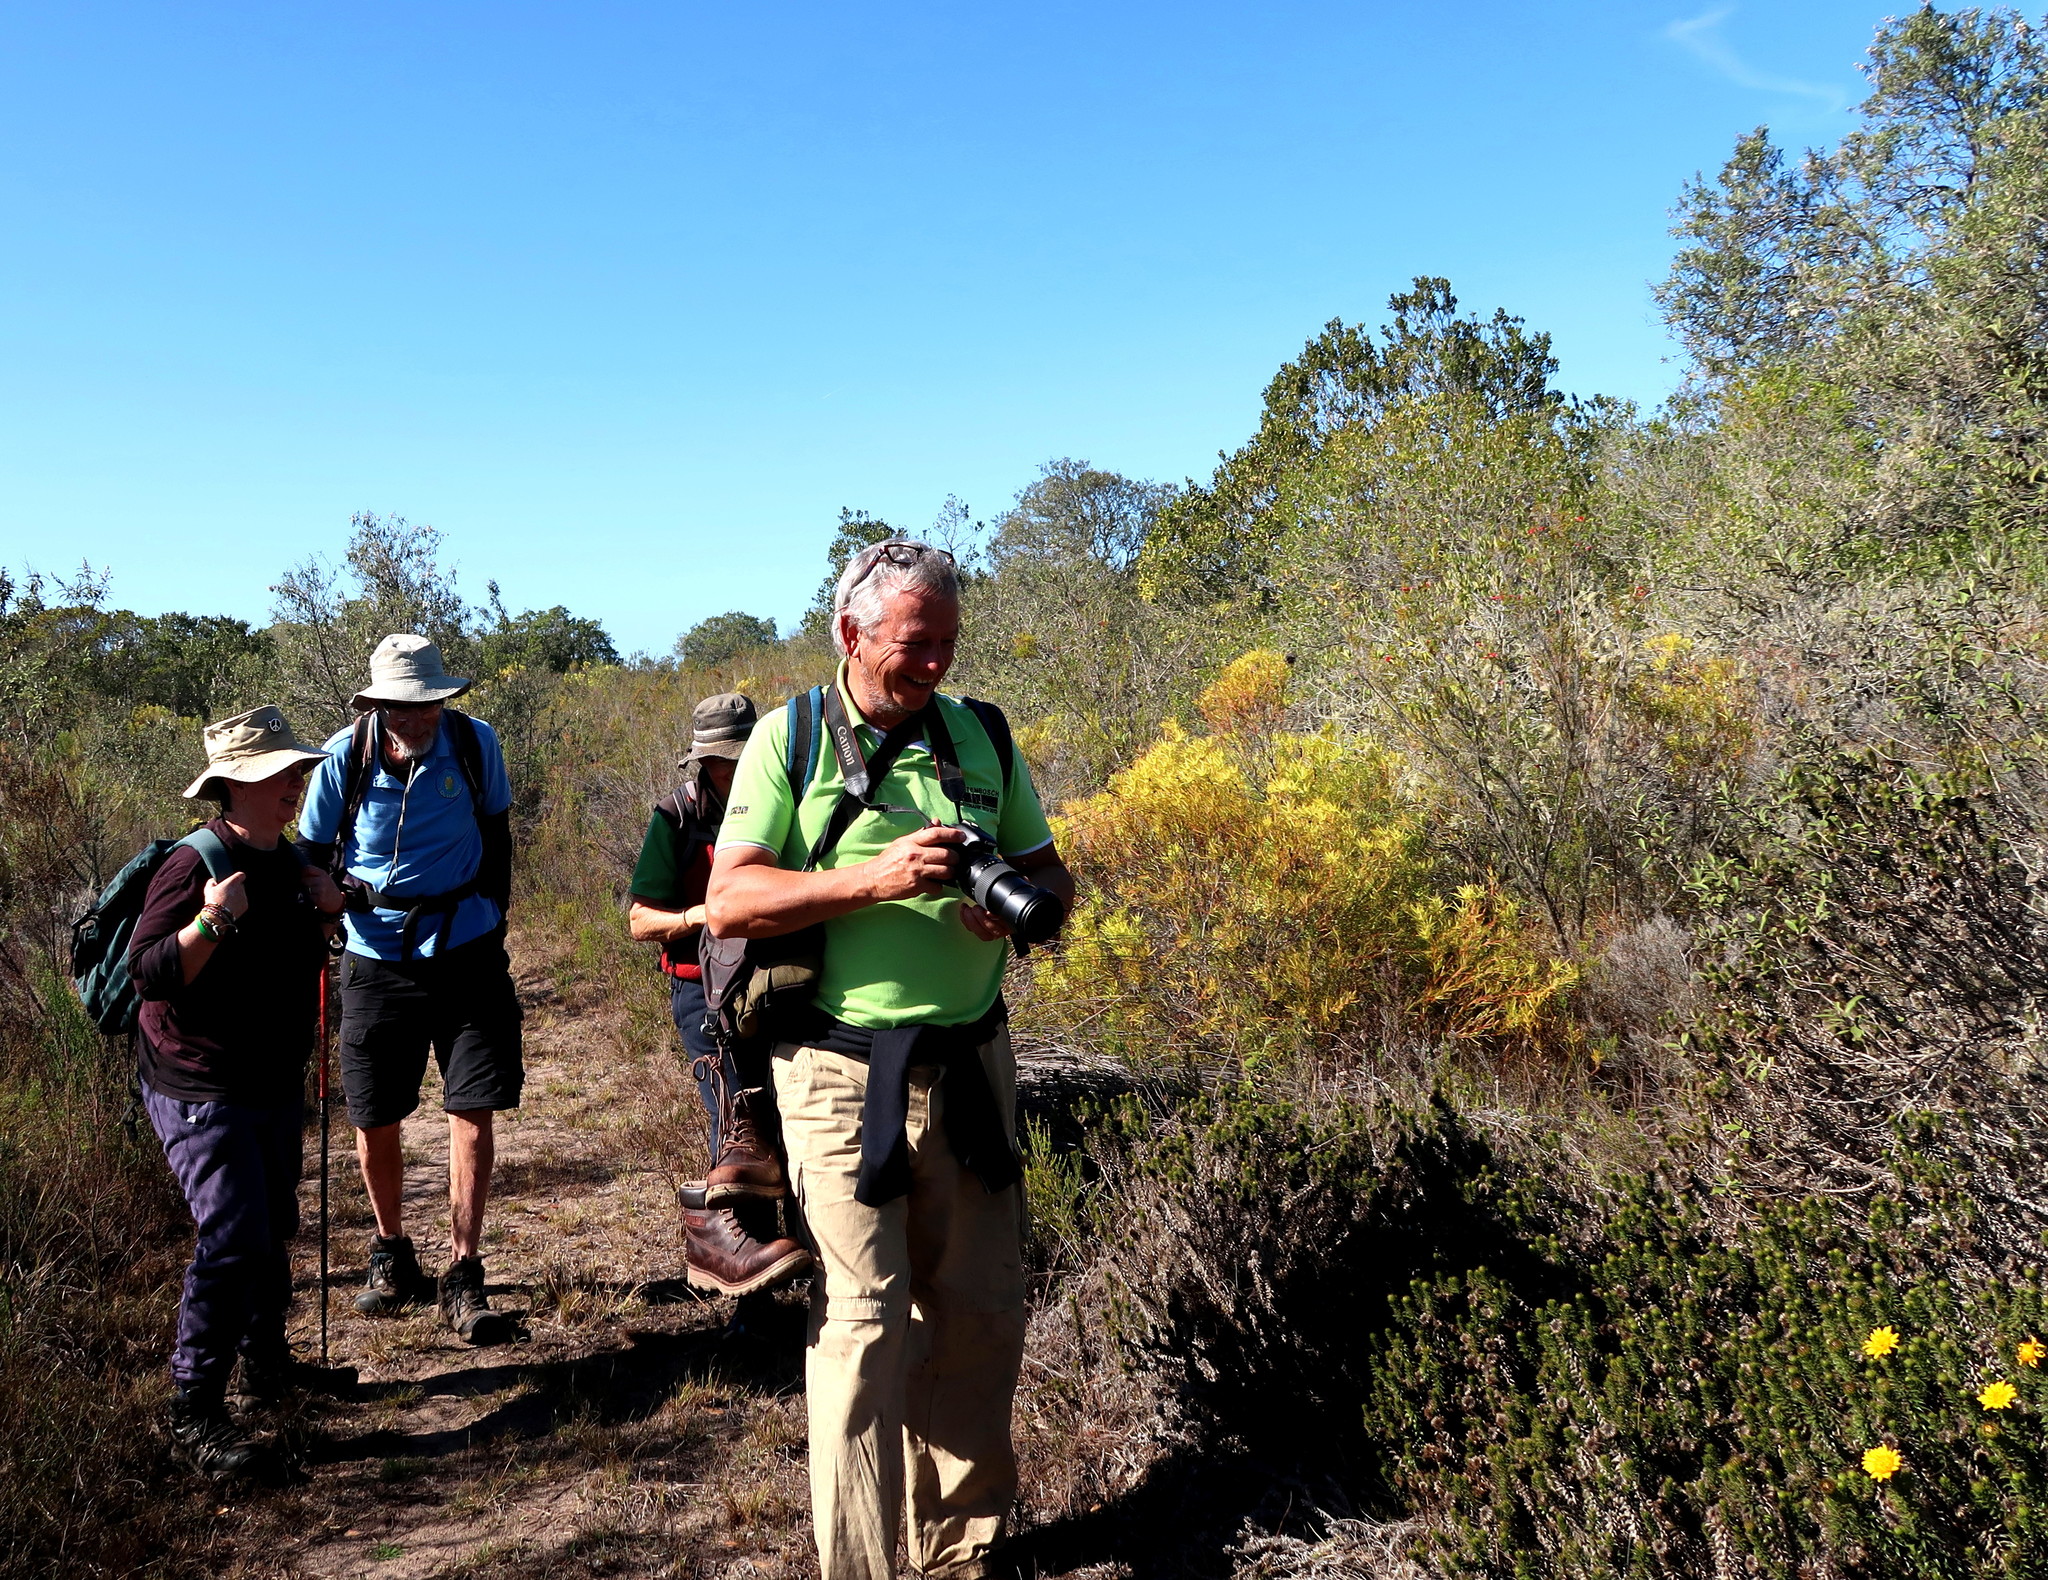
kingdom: Plantae
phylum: Tracheophyta
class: Magnoliopsida
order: Proteales
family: Proteaceae
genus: Leucadendron
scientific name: Leucadendron salignum
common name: Common sunshine conebush
